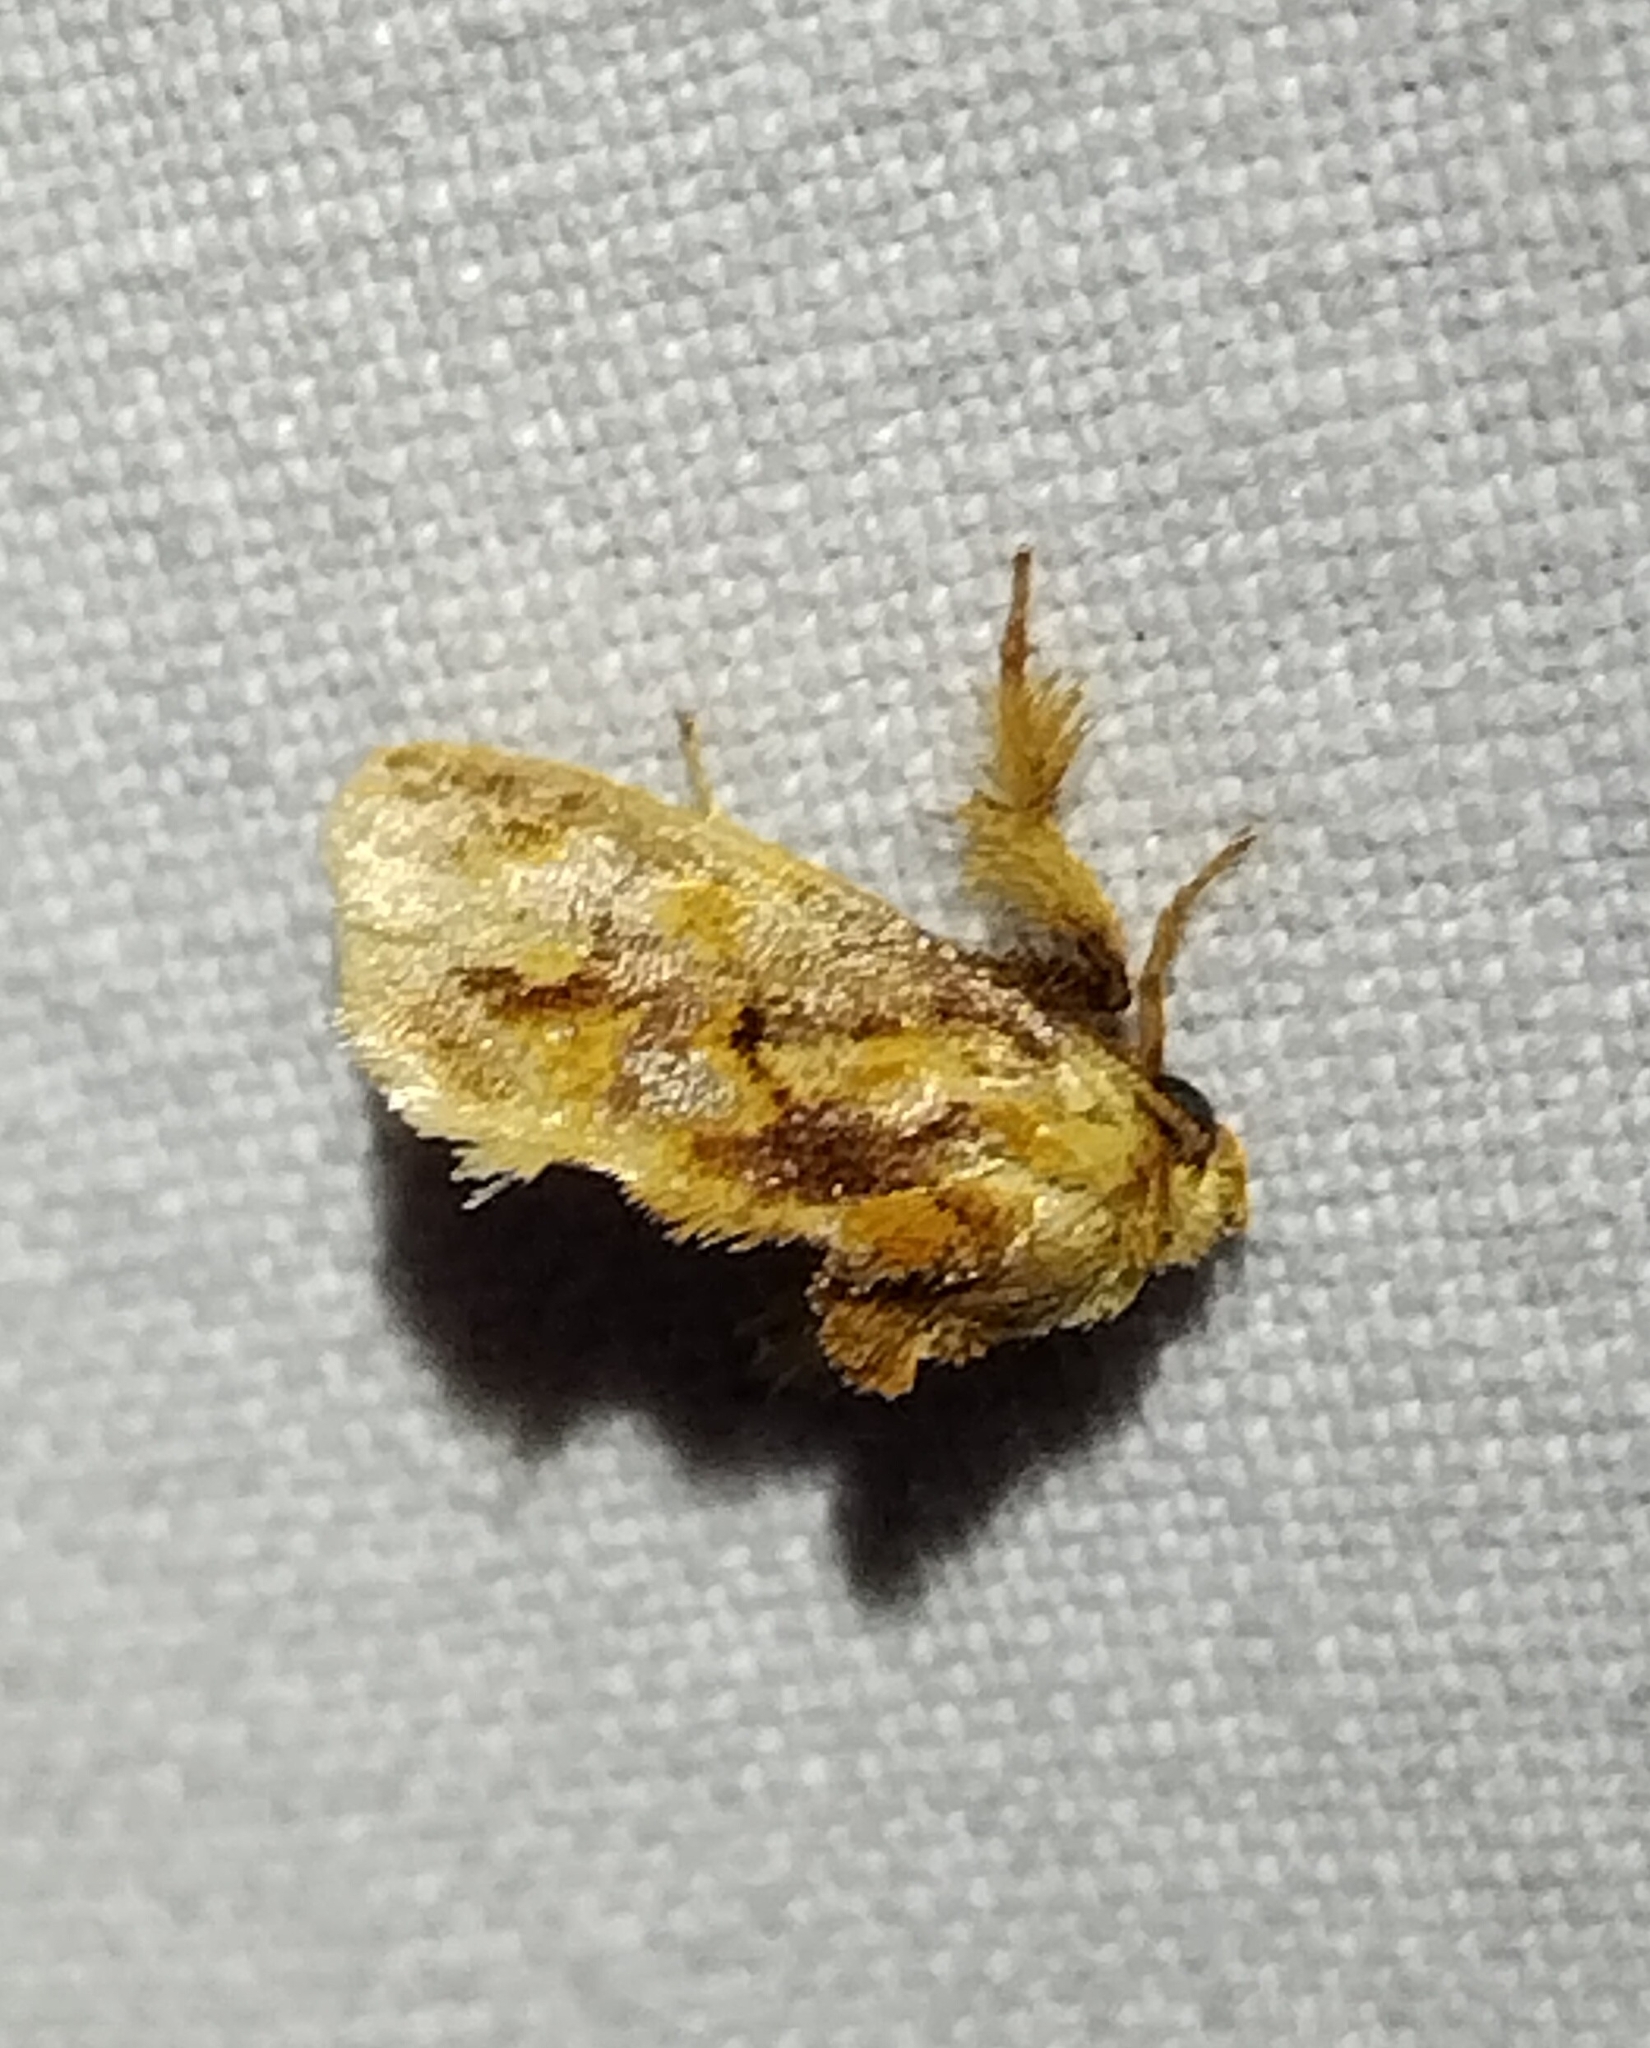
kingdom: Animalia
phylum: Arthropoda
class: Insecta
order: Lepidoptera
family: Limacodidae
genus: Isochaetes
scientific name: Isochaetes beutenmuelleri
